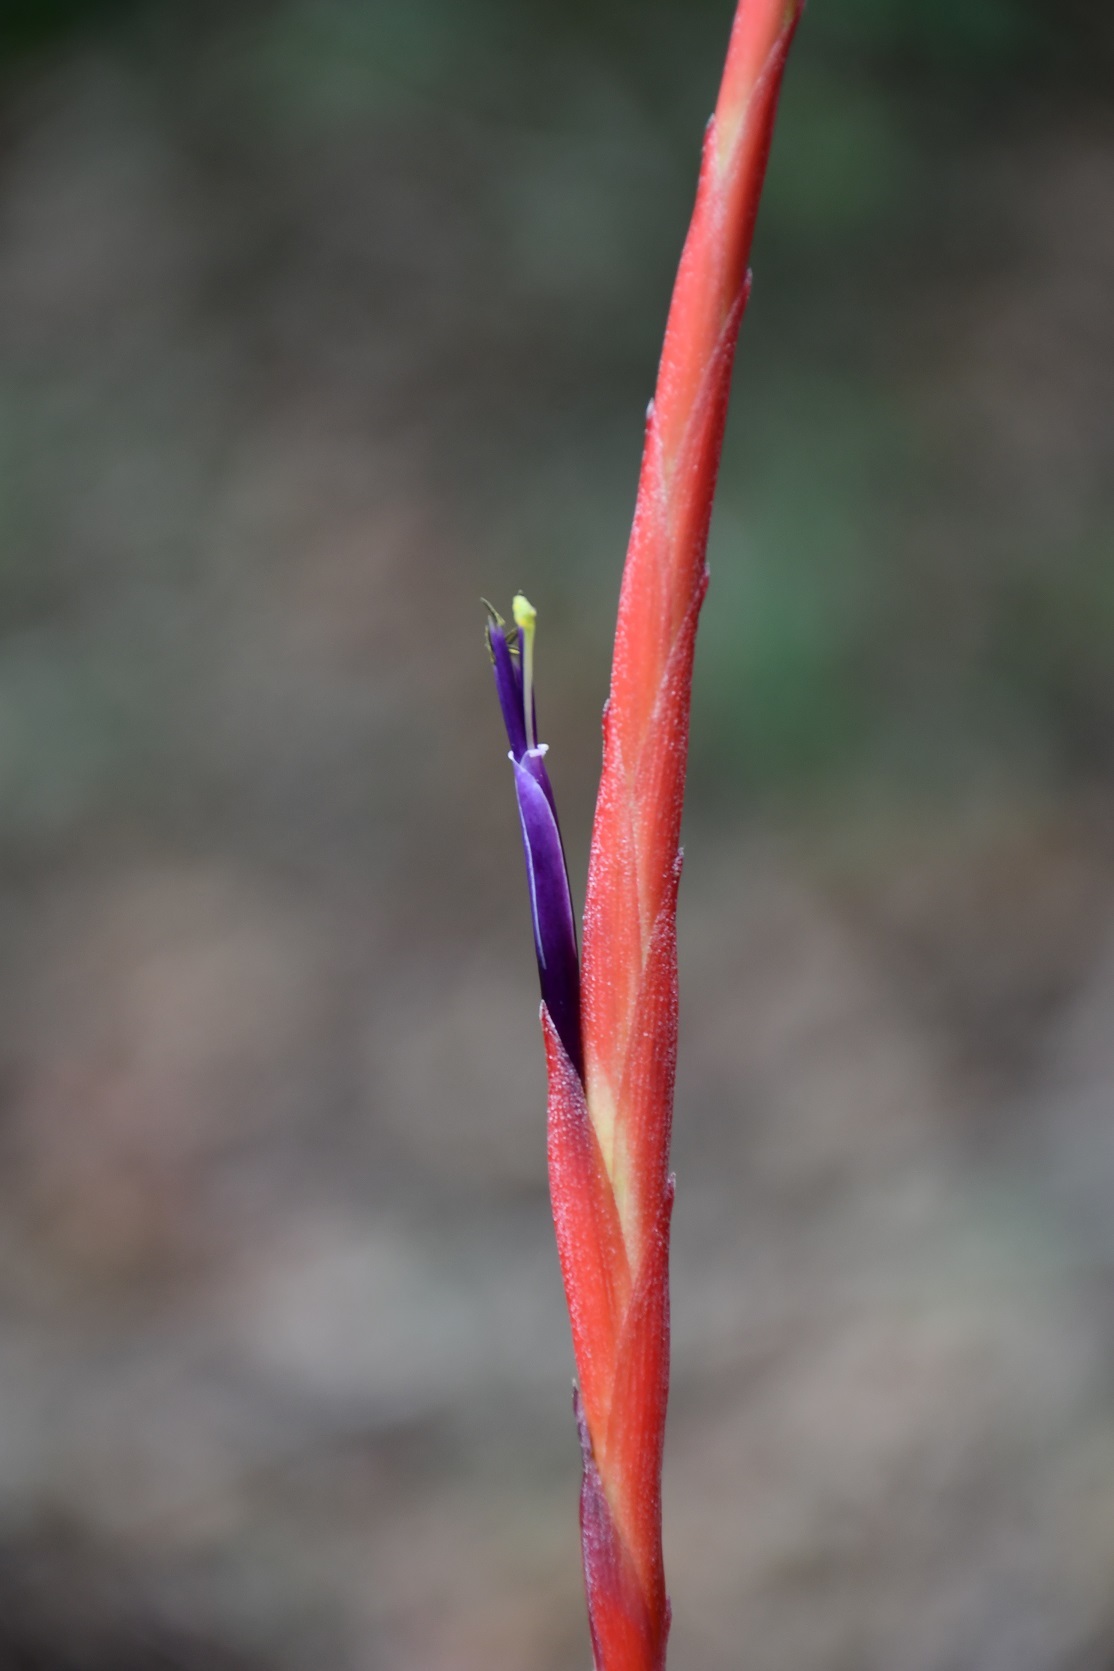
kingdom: Plantae
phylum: Tracheophyta
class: Liliopsida
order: Poales
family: Bromeliaceae
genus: Tillandsia
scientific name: Tillandsia flabellata
